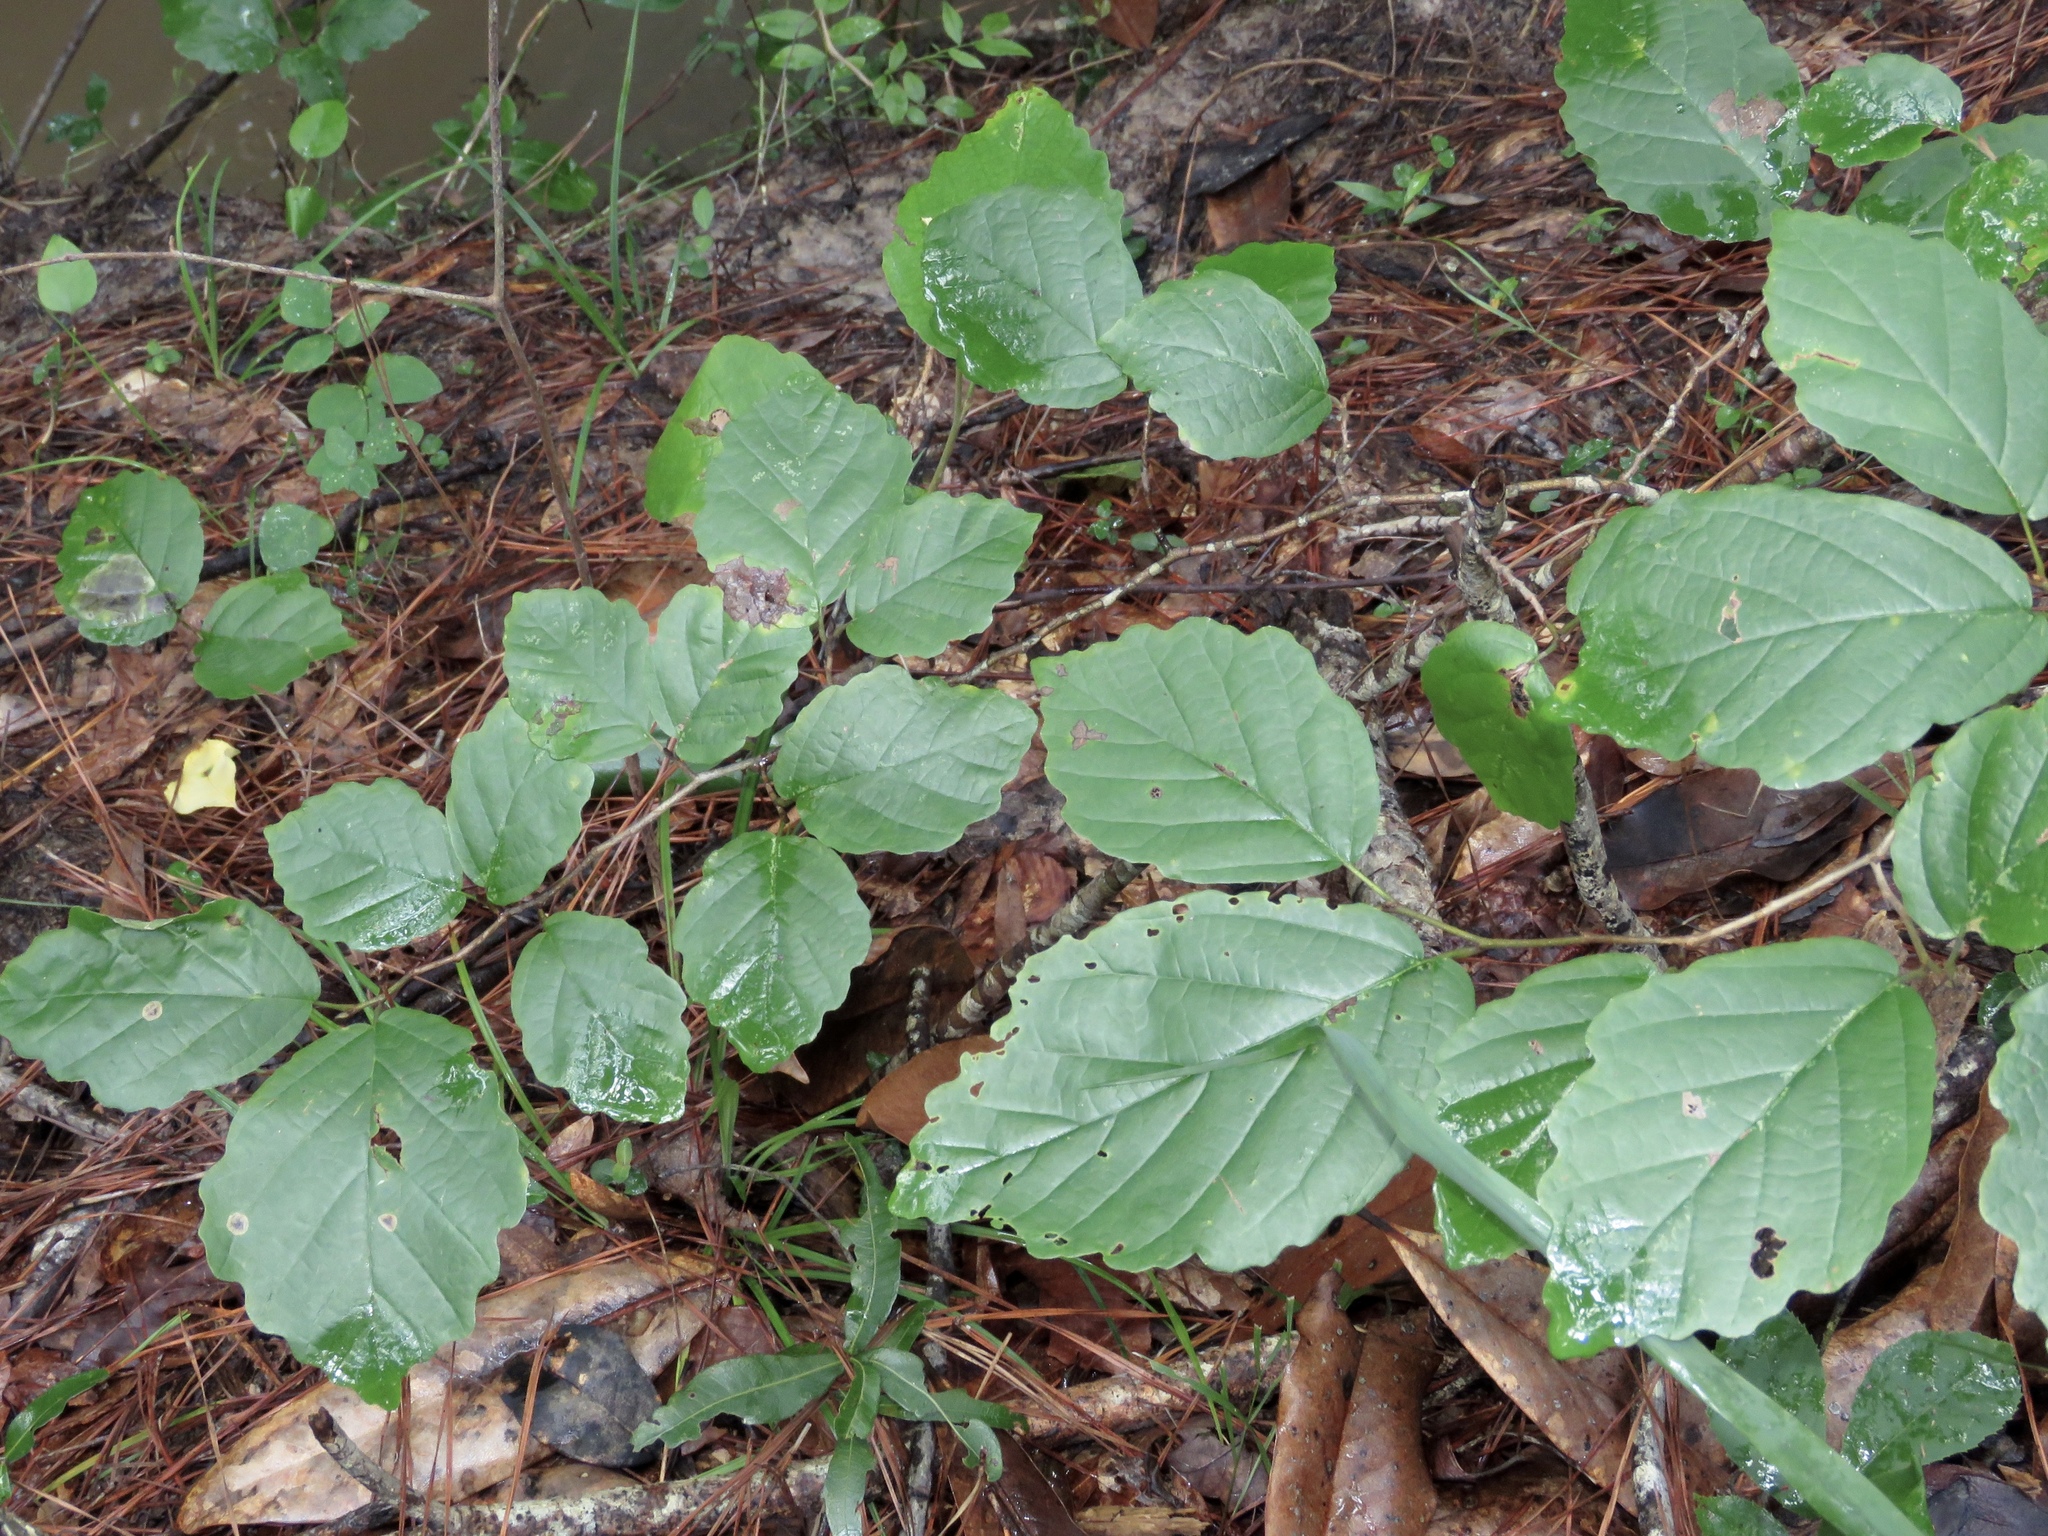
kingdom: Plantae
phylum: Tracheophyta
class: Magnoliopsida
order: Saxifragales
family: Hamamelidaceae
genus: Hamamelis
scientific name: Hamamelis virginiana
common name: Witch-hazel
